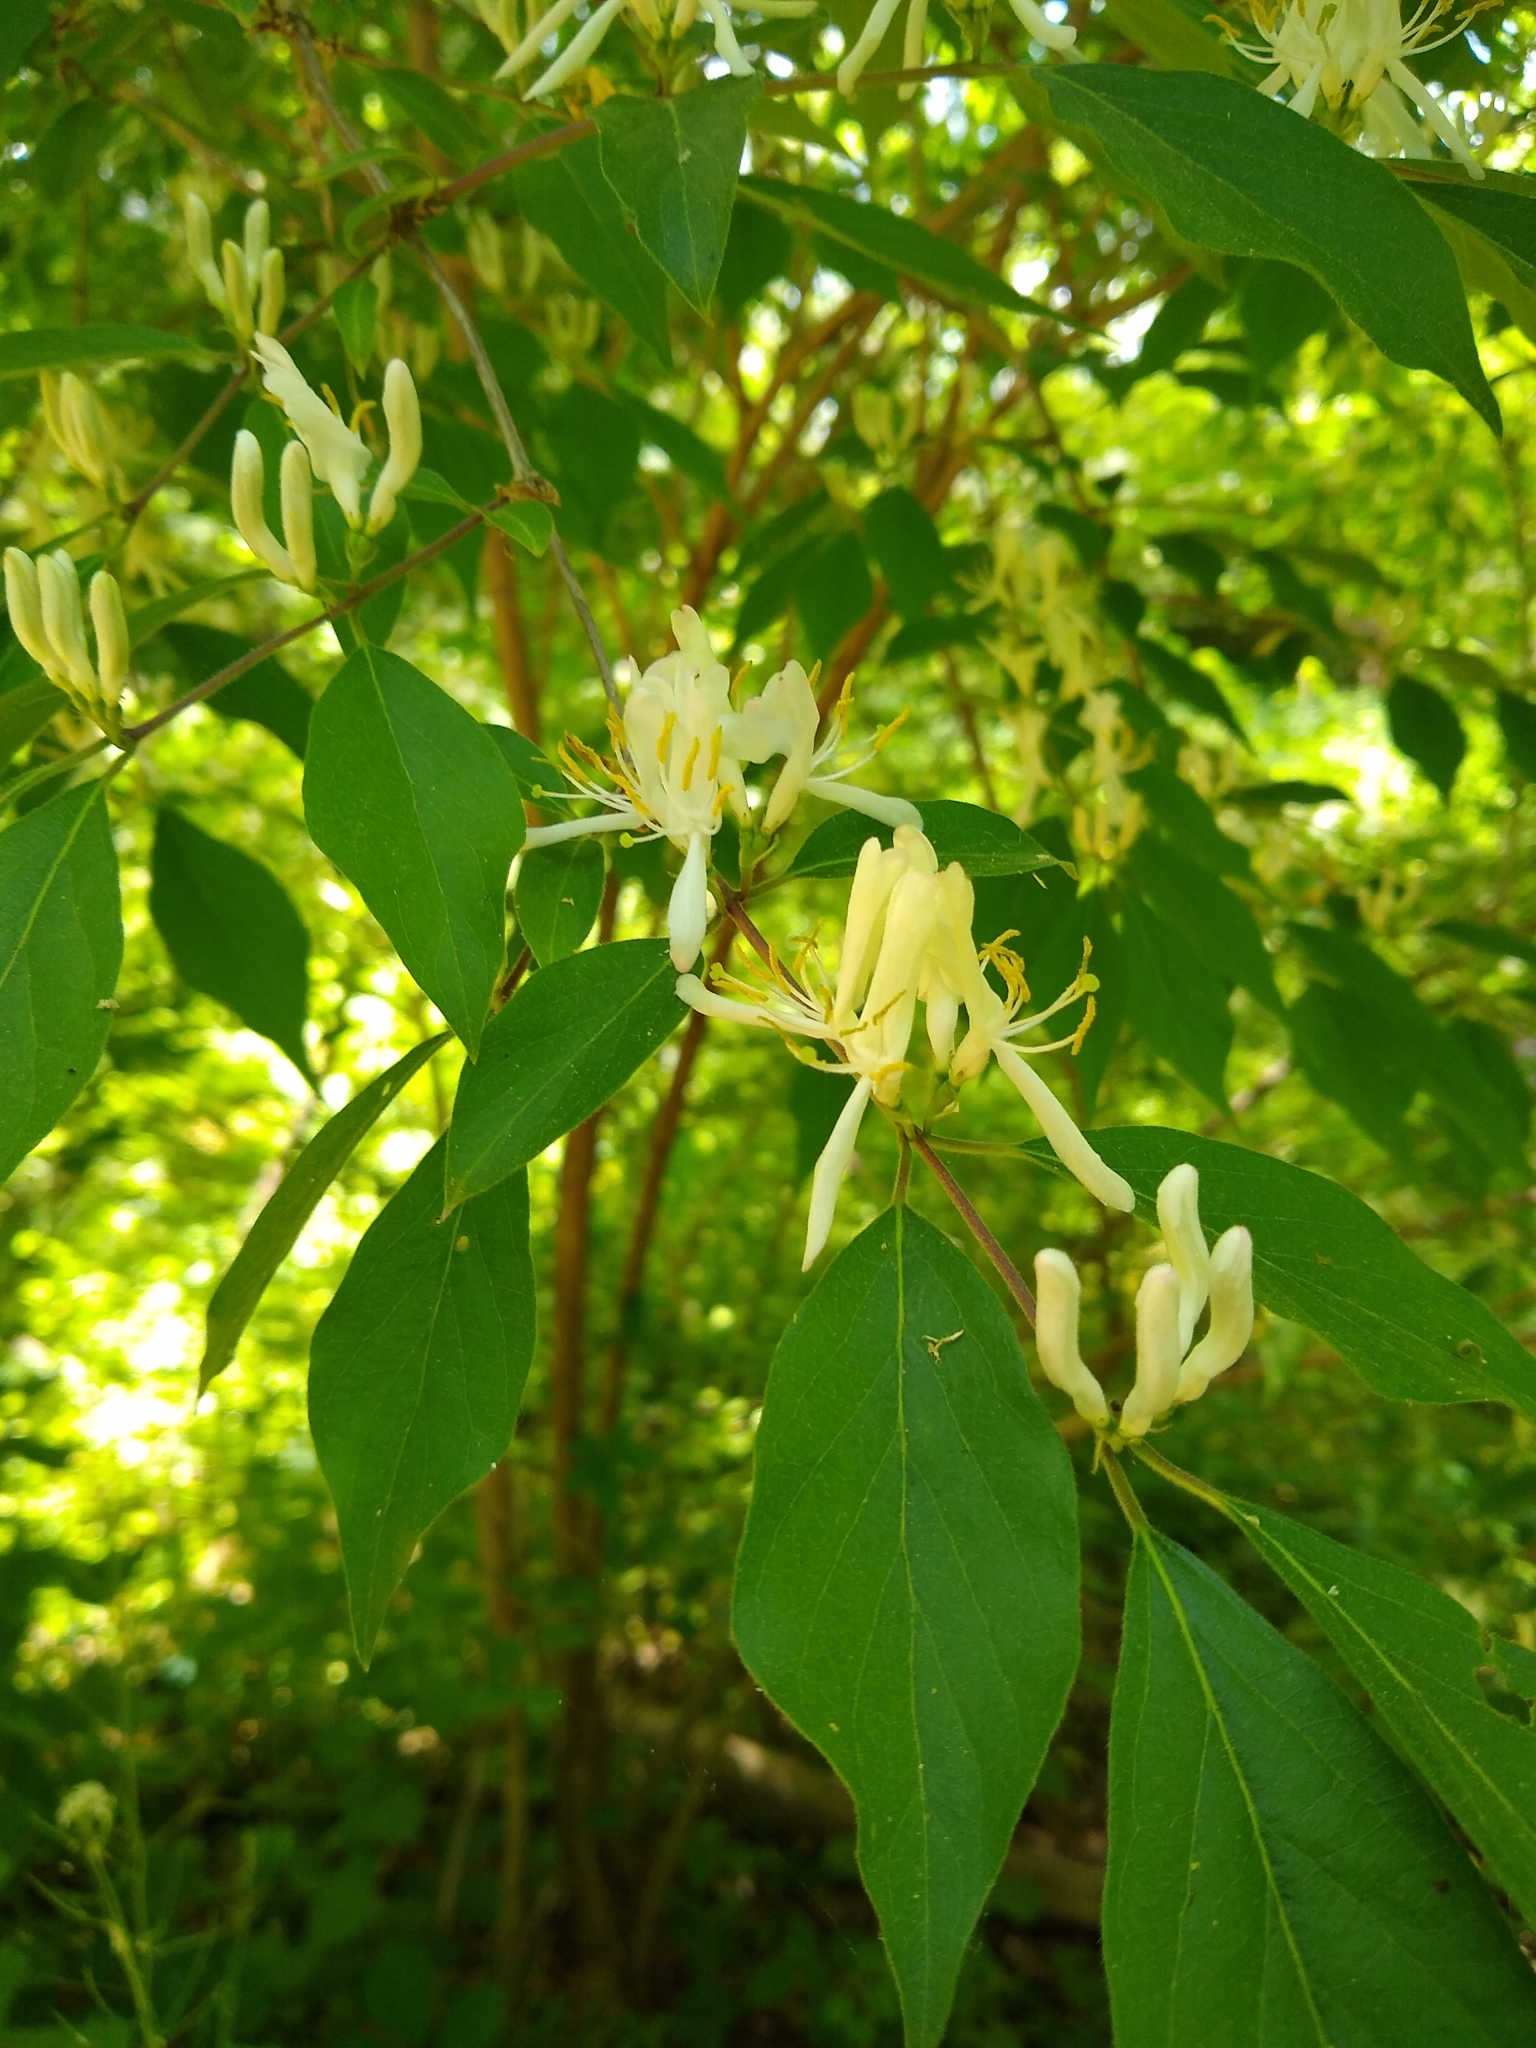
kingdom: Plantae
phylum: Tracheophyta
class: Magnoliopsida
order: Dipsacales
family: Caprifoliaceae
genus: Lonicera
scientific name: Lonicera maackii
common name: Amur honeysuckle
